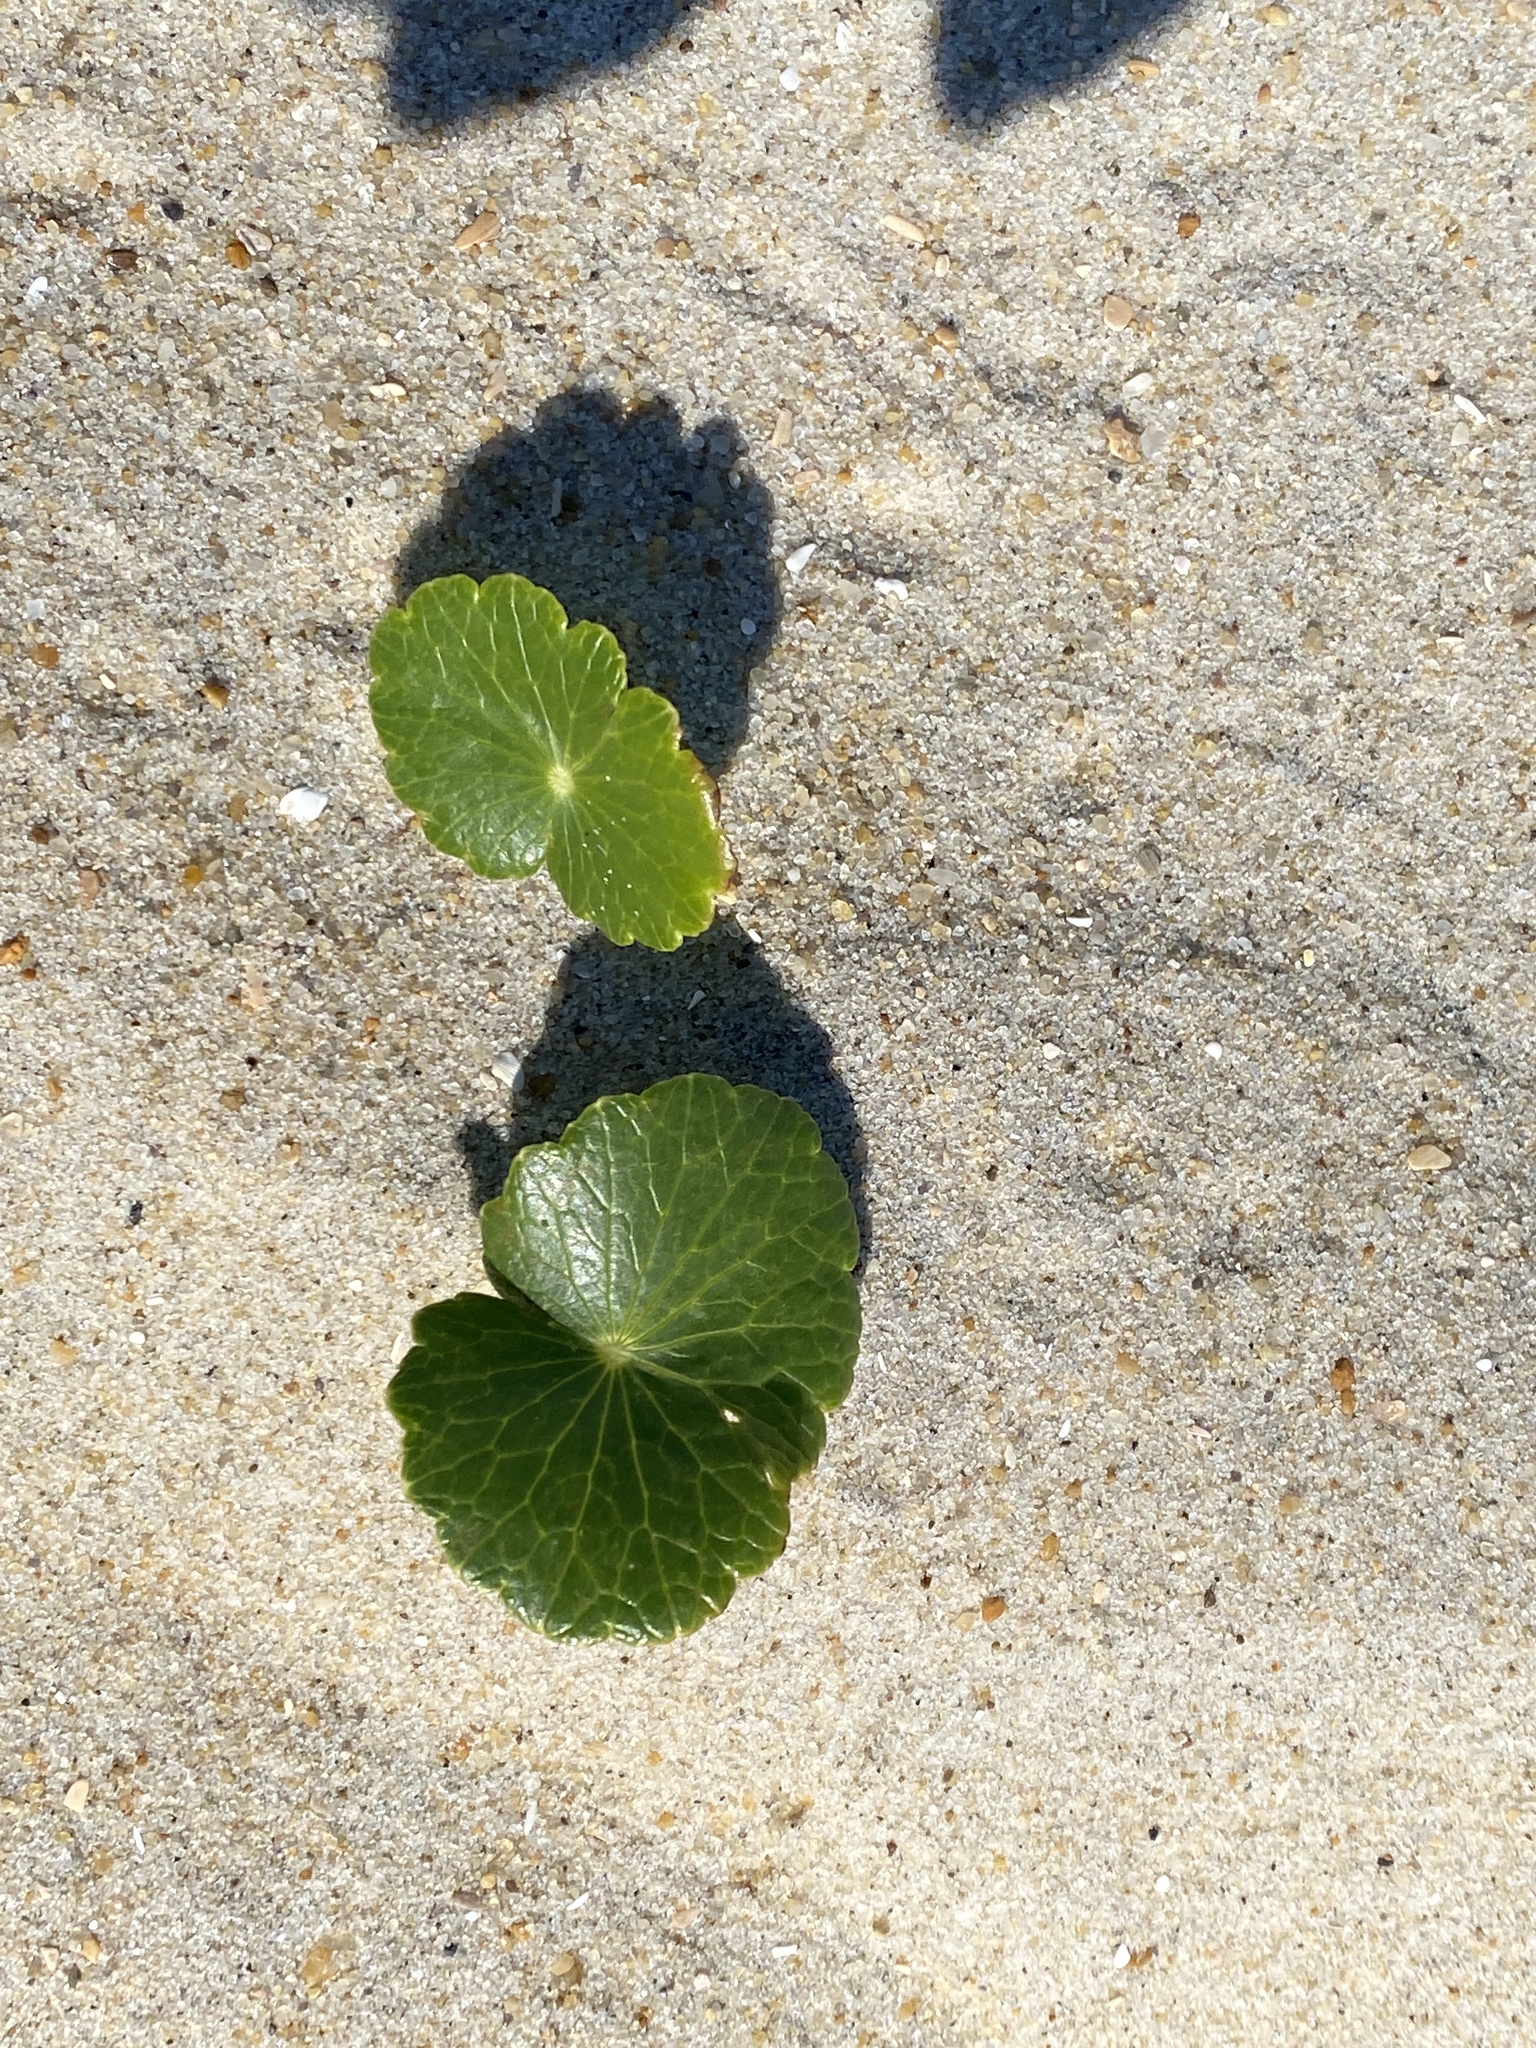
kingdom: Plantae
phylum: Tracheophyta
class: Magnoliopsida
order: Apiales
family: Araliaceae
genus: Hydrocotyle
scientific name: Hydrocotyle bonariensis
